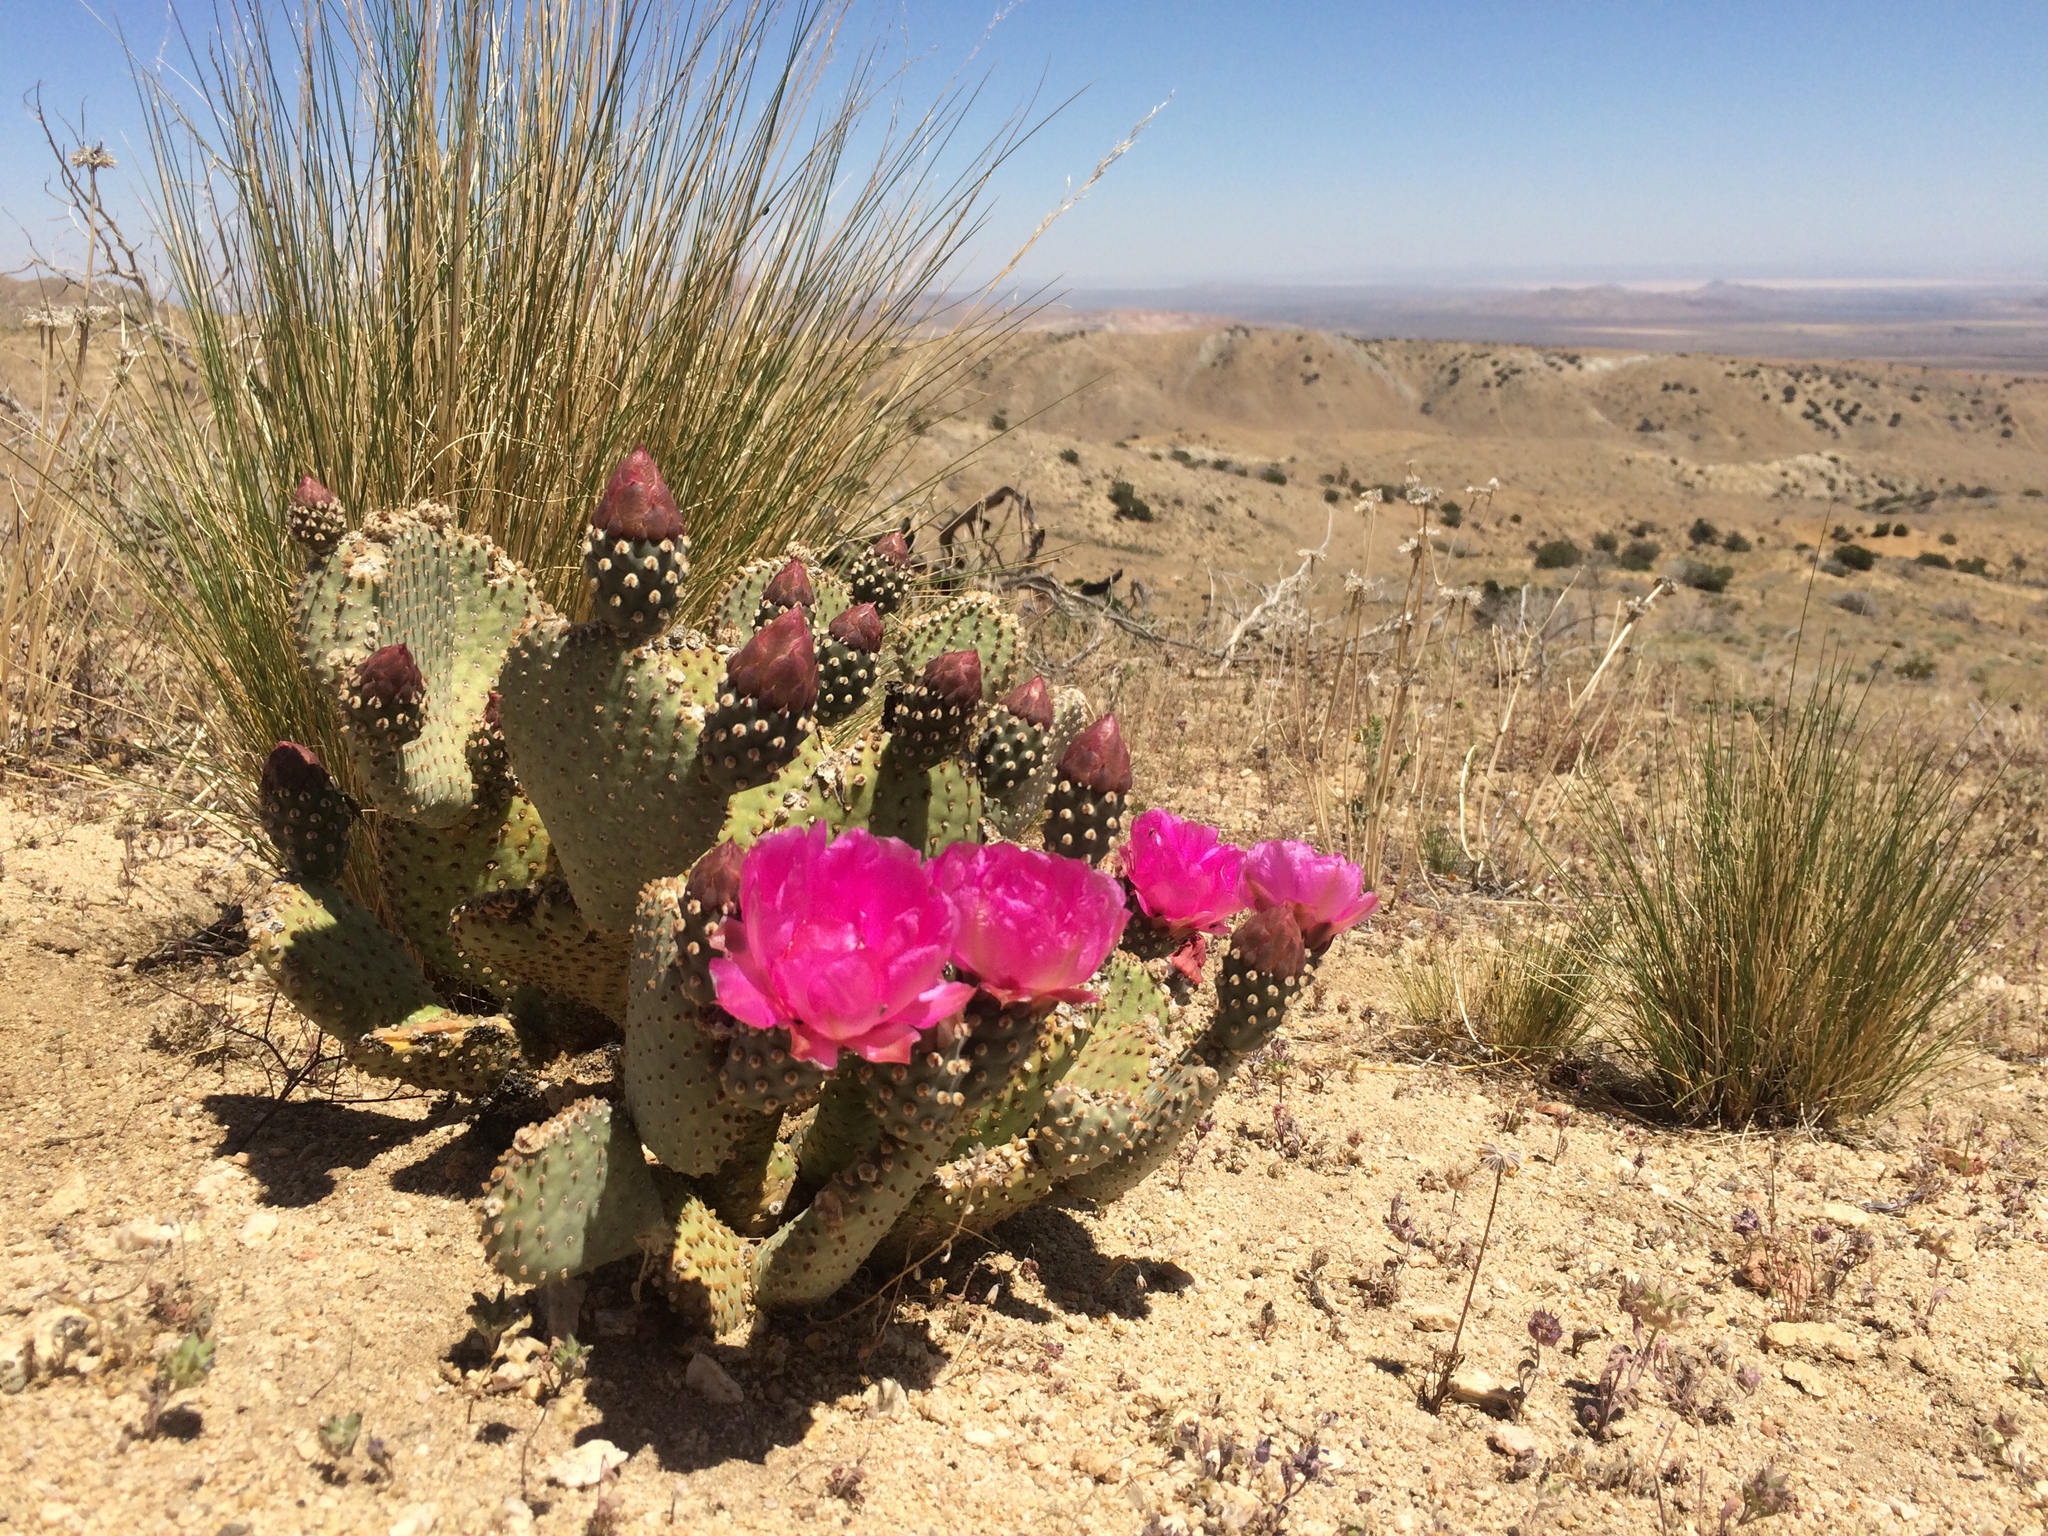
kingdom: Plantae
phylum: Tracheophyta
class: Magnoliopsida
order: Caryophyllales
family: Cactaceae
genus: Opuntia
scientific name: Opuntia basilaris
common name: Beavertail prickly-pear
